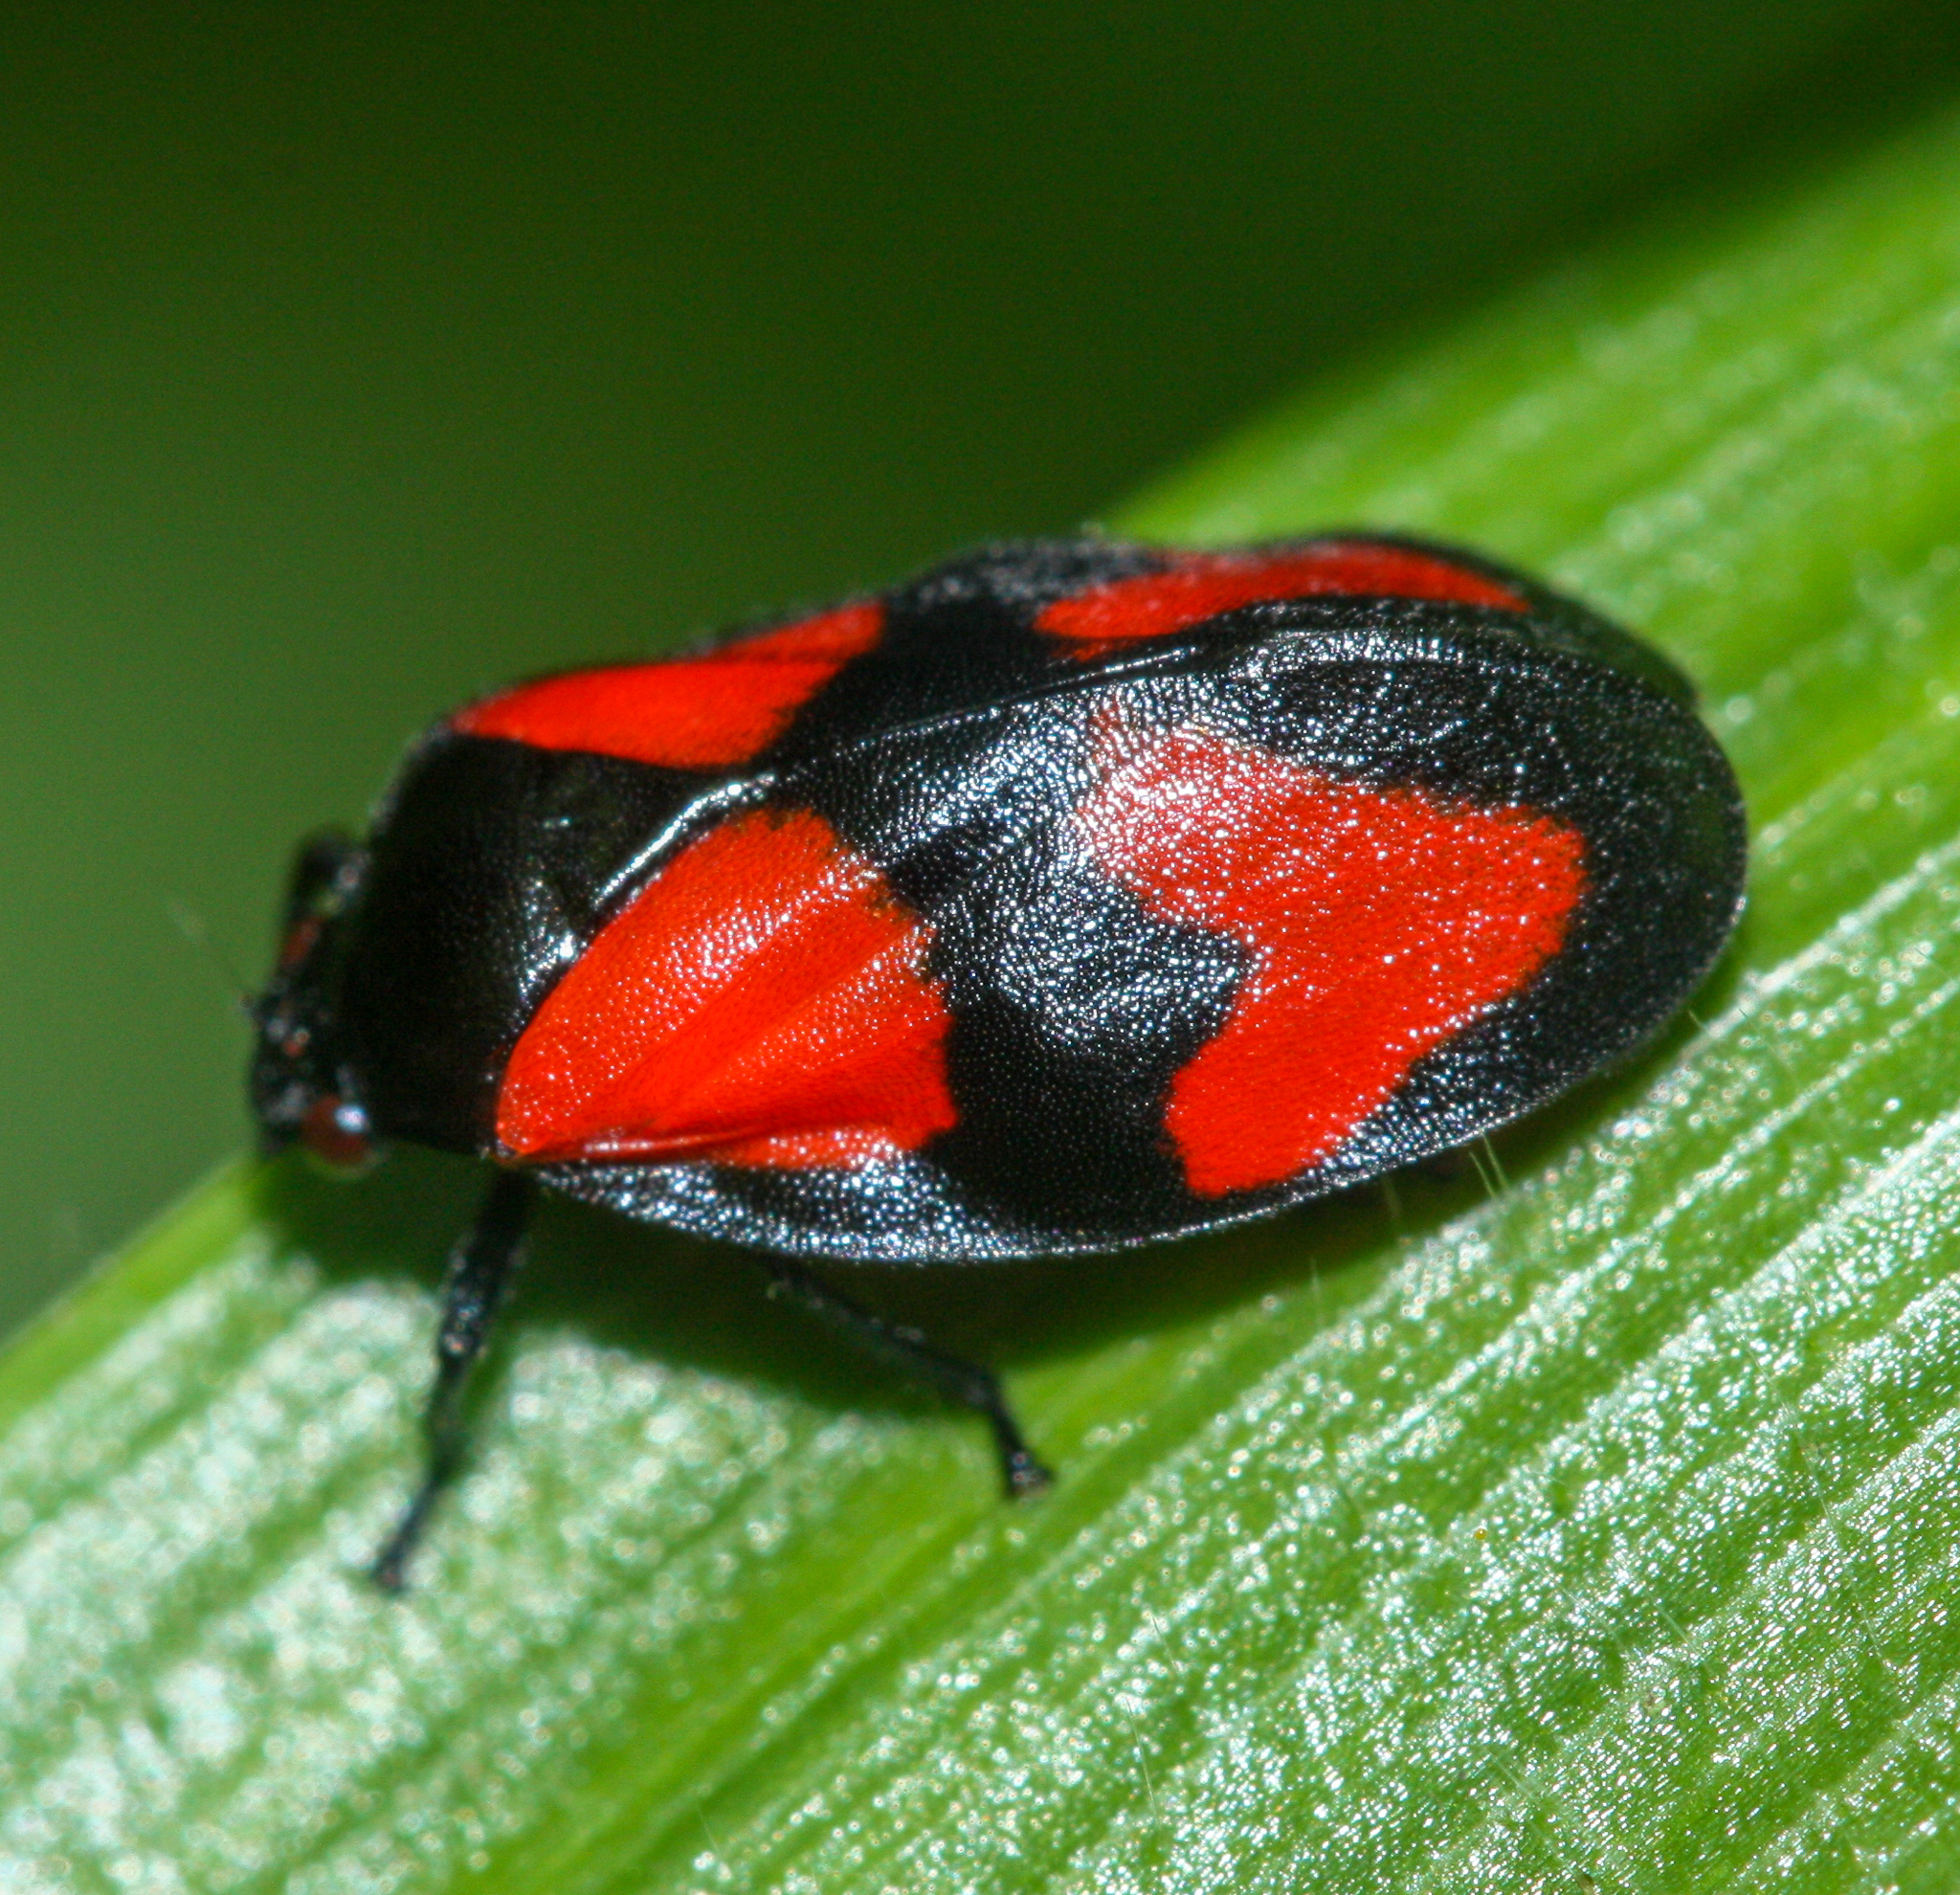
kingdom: Animalia
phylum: Arthropoda
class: Insecta
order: Hemiptera
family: Cercopidae
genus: Mahanarva
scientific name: Mahanarva cruxminor
